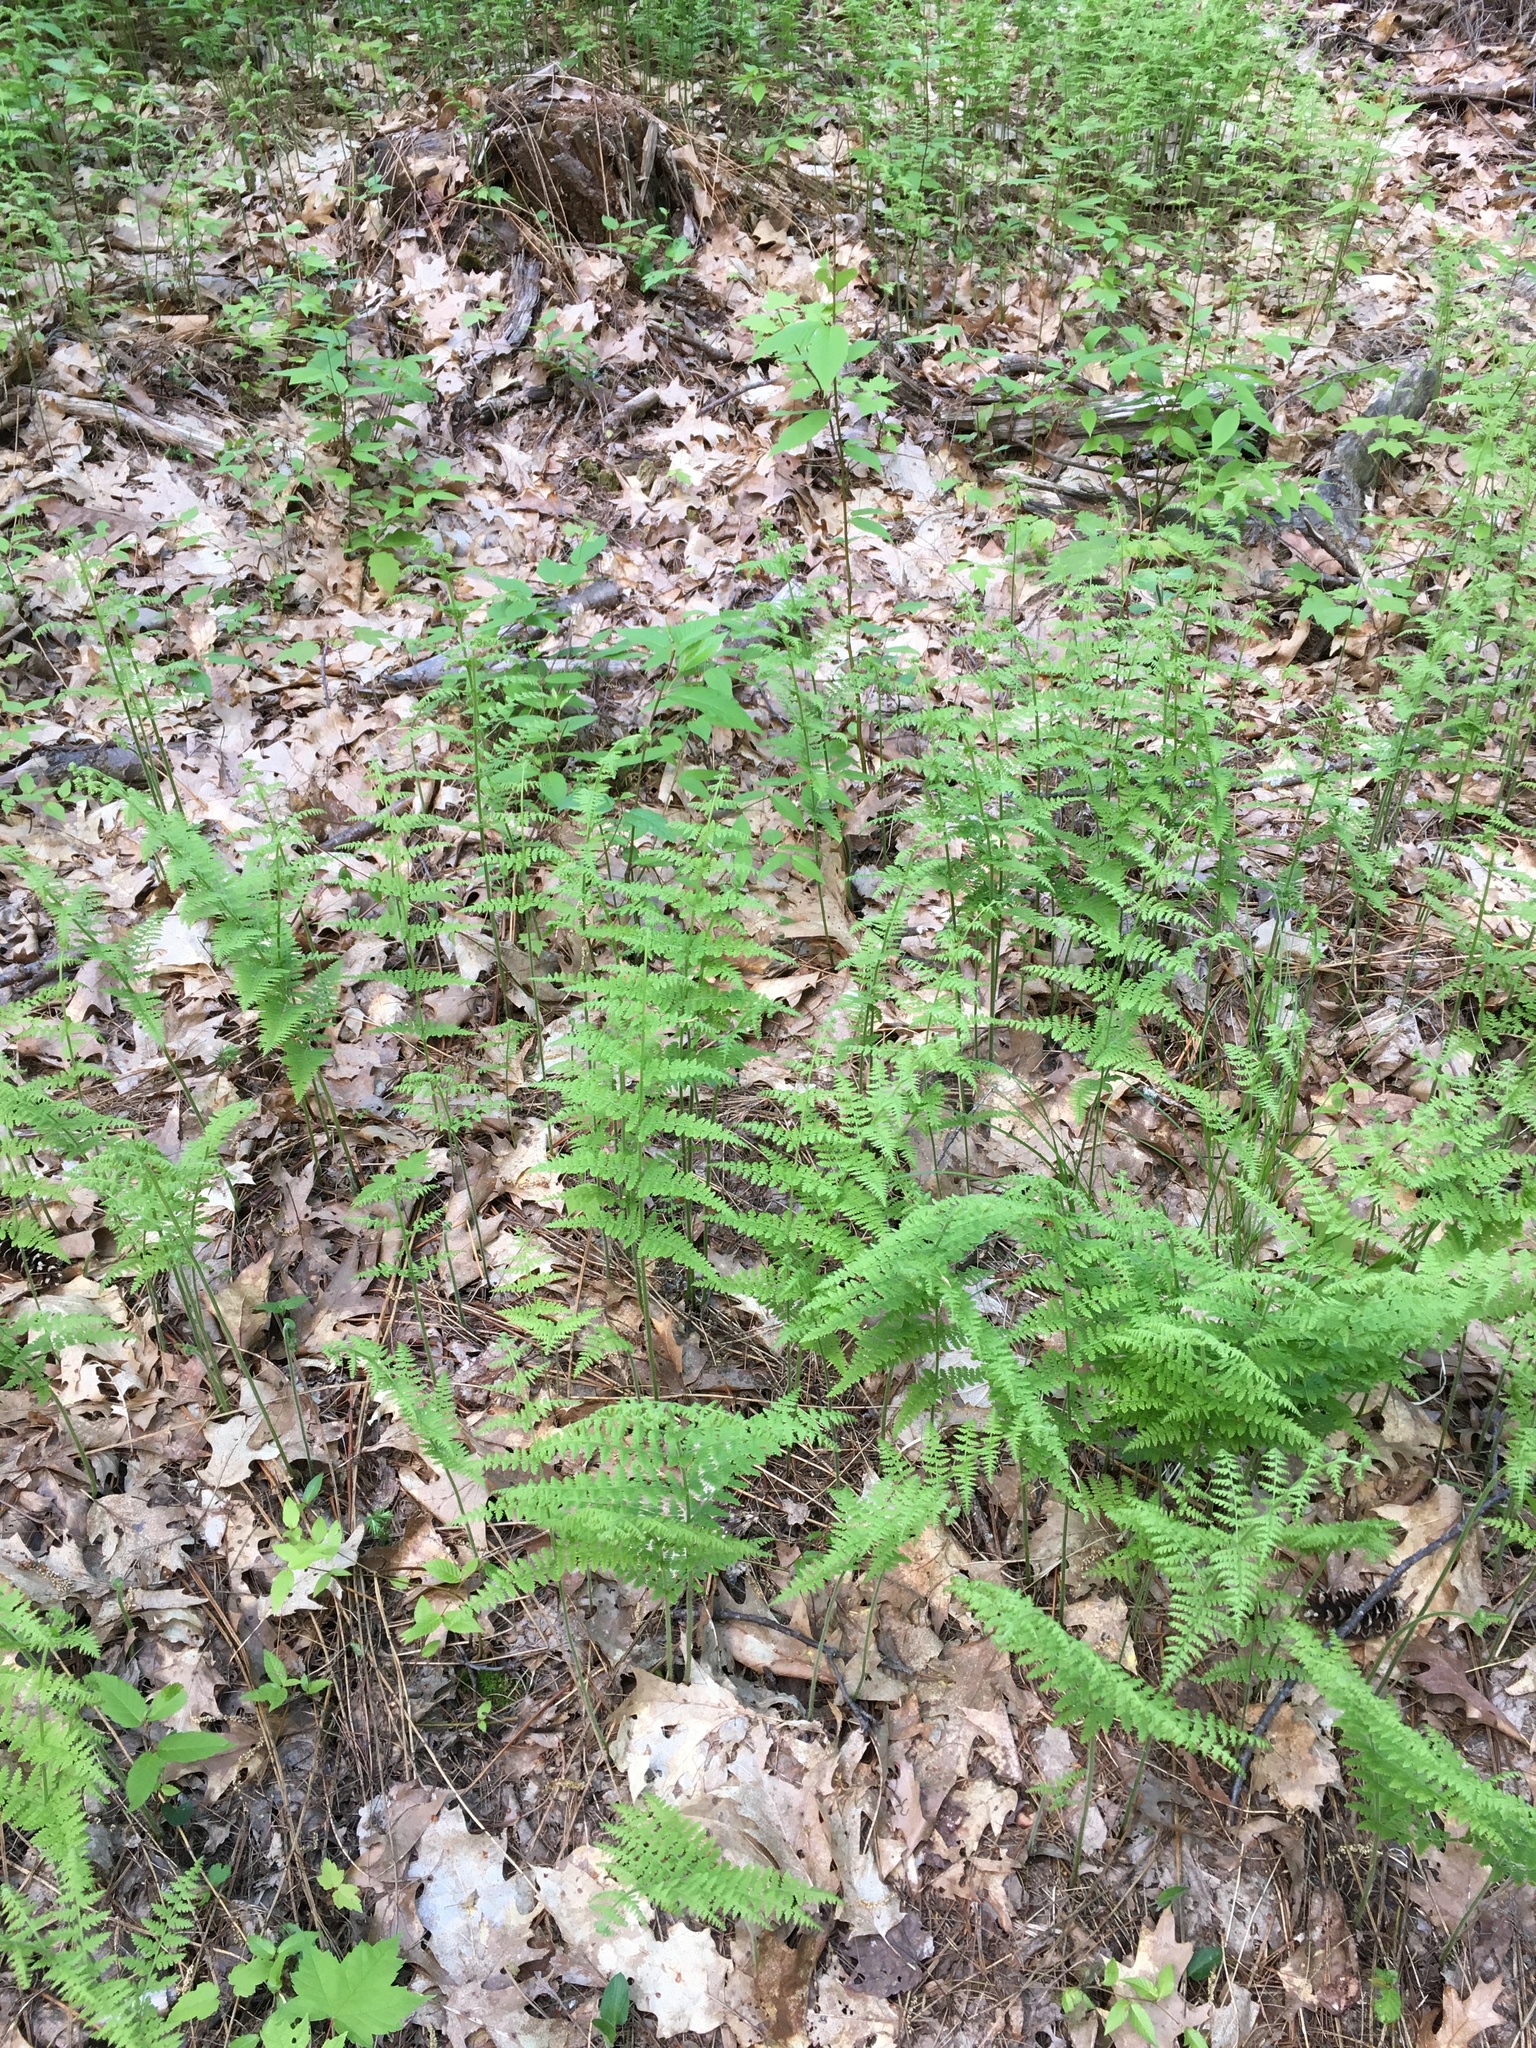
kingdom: Plantae
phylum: Tracheophyta
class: Polypodiopsida
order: Polypodiales
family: Dennstaedtiaceae
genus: Sitobolium
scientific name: Sitobolium punctilobum
